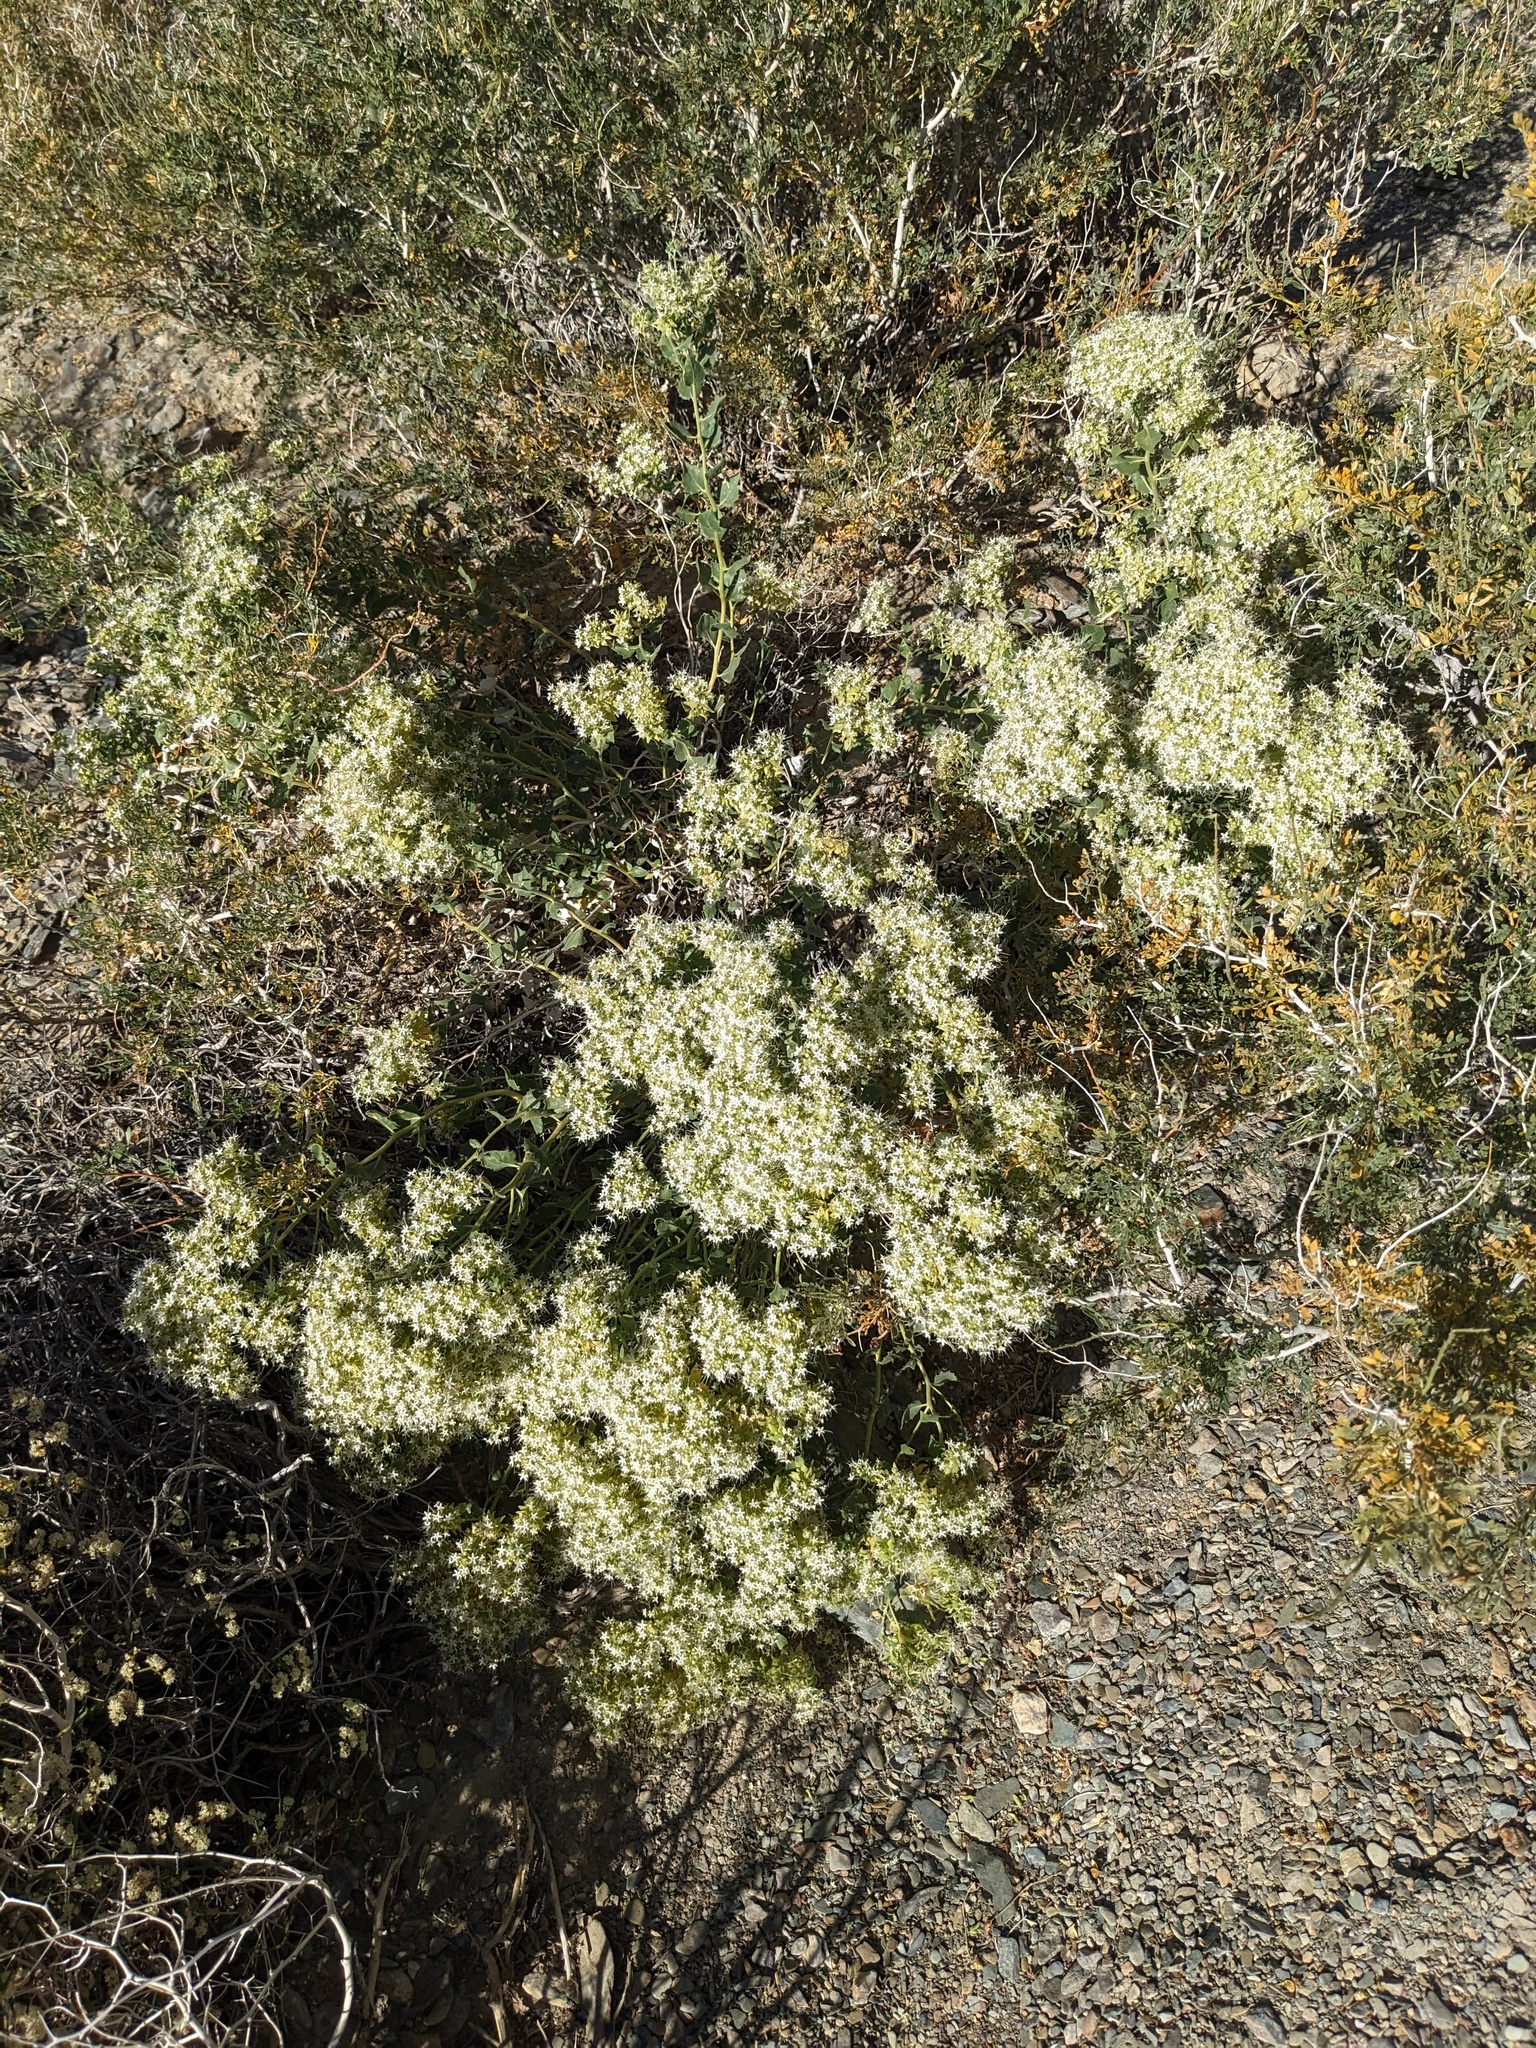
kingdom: Plantae
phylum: Tracheophyta
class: Magnoliopsida
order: Cornales
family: Loasaceae
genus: Petalonyx
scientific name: Petalonyx nitidus
